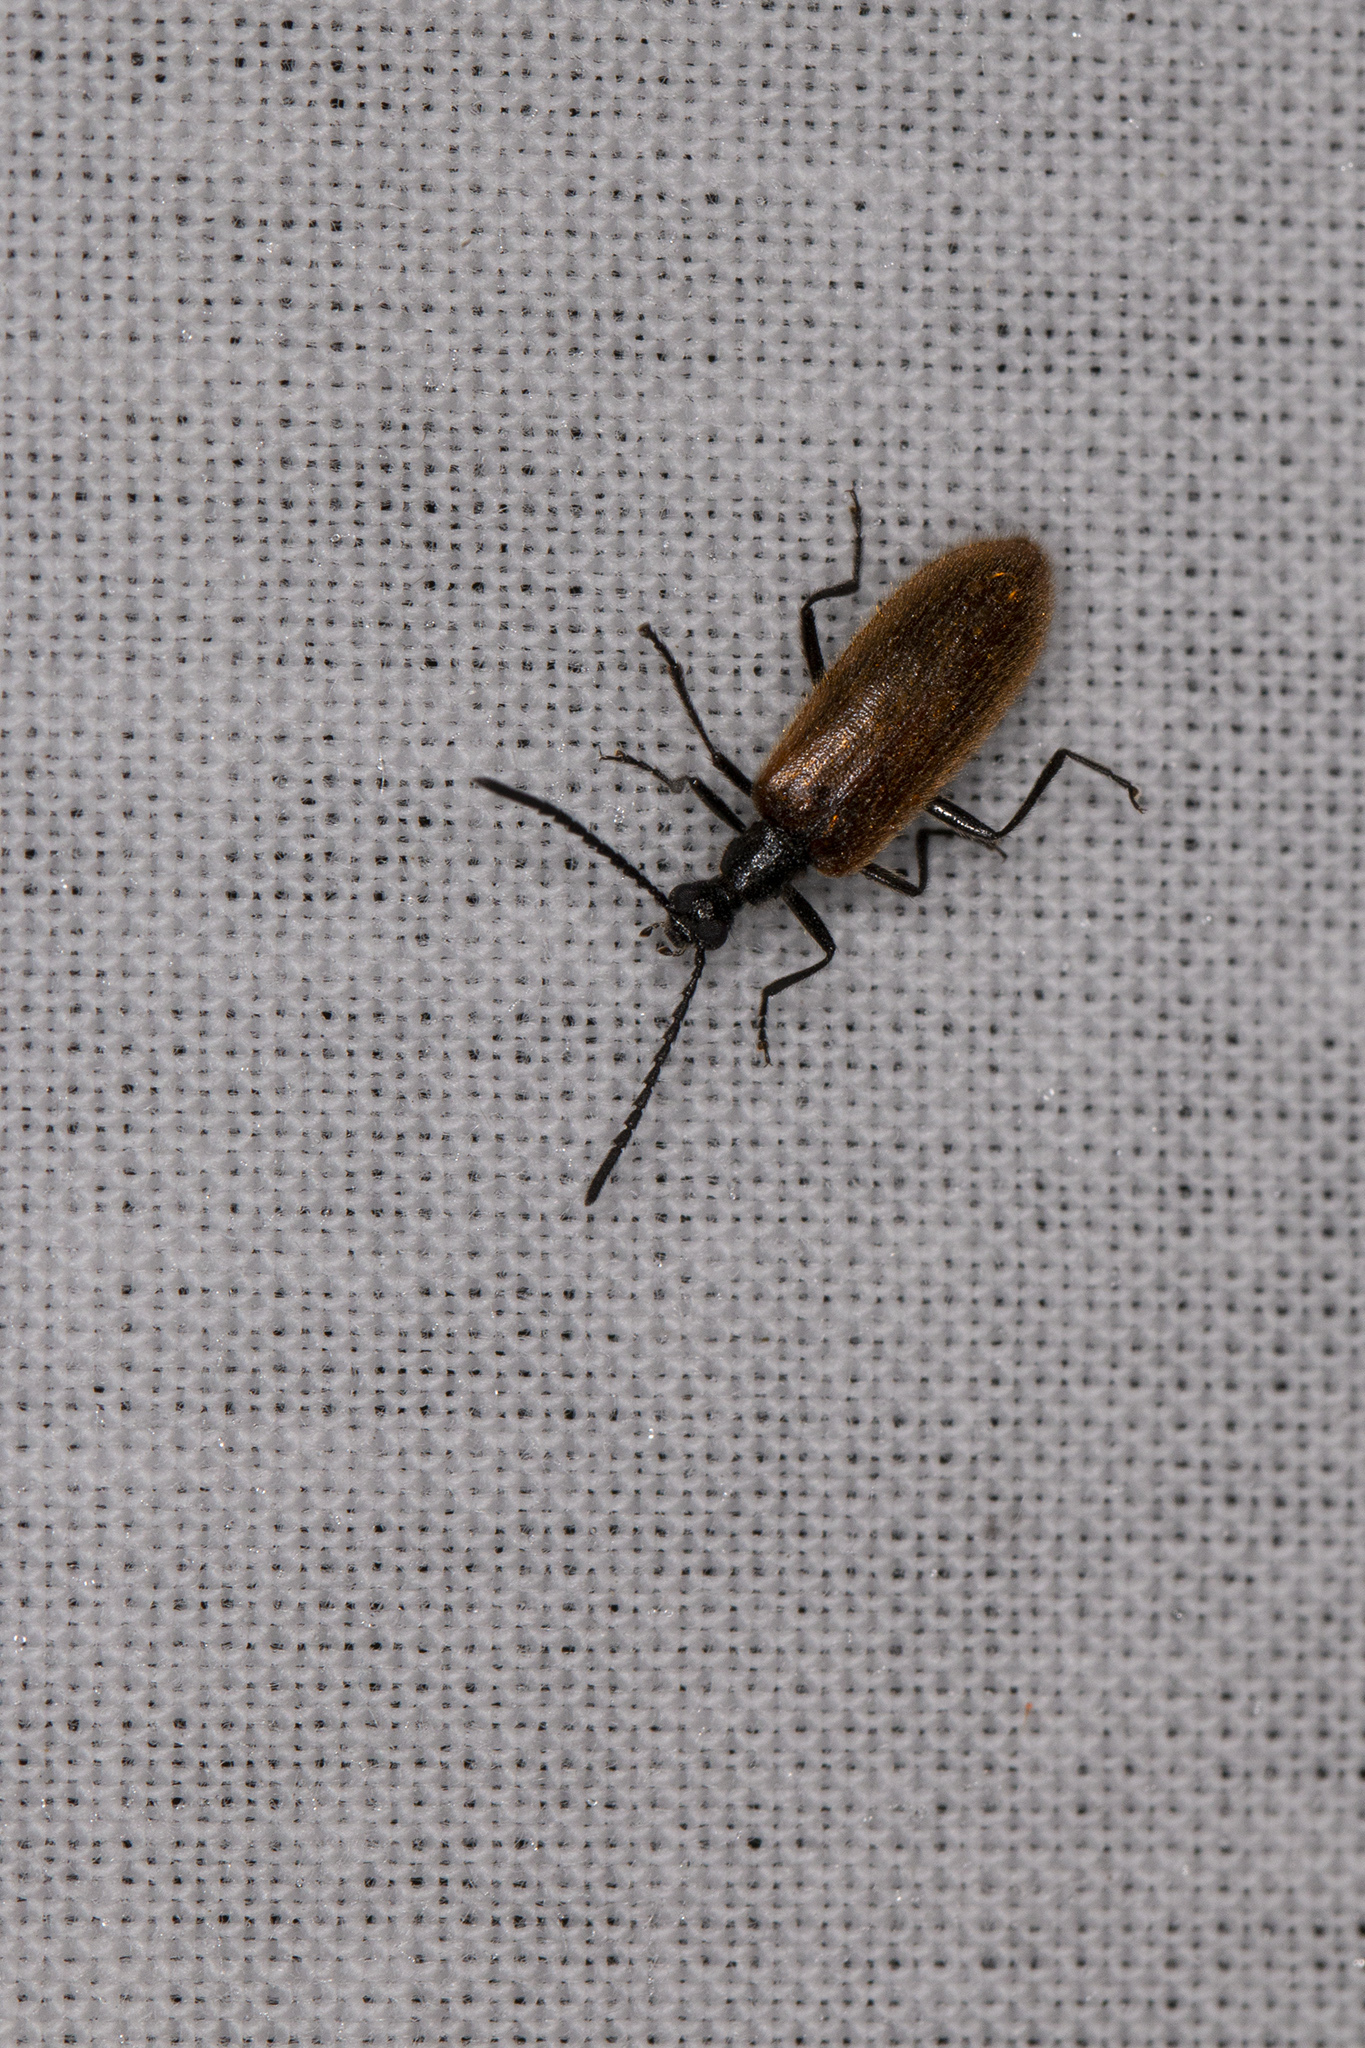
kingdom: Animalia
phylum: Arthropoda
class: Insecta
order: Coleoptera
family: Tenebrionidae
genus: Lagria
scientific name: Lagria hirta
